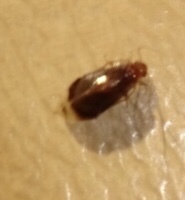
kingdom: Animalia
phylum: Arthropoda
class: Insecta
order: Psocodea
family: Amphipsocidae
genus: Polypsocus
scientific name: Polypsocus corruptus
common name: Corrupt barklouse
